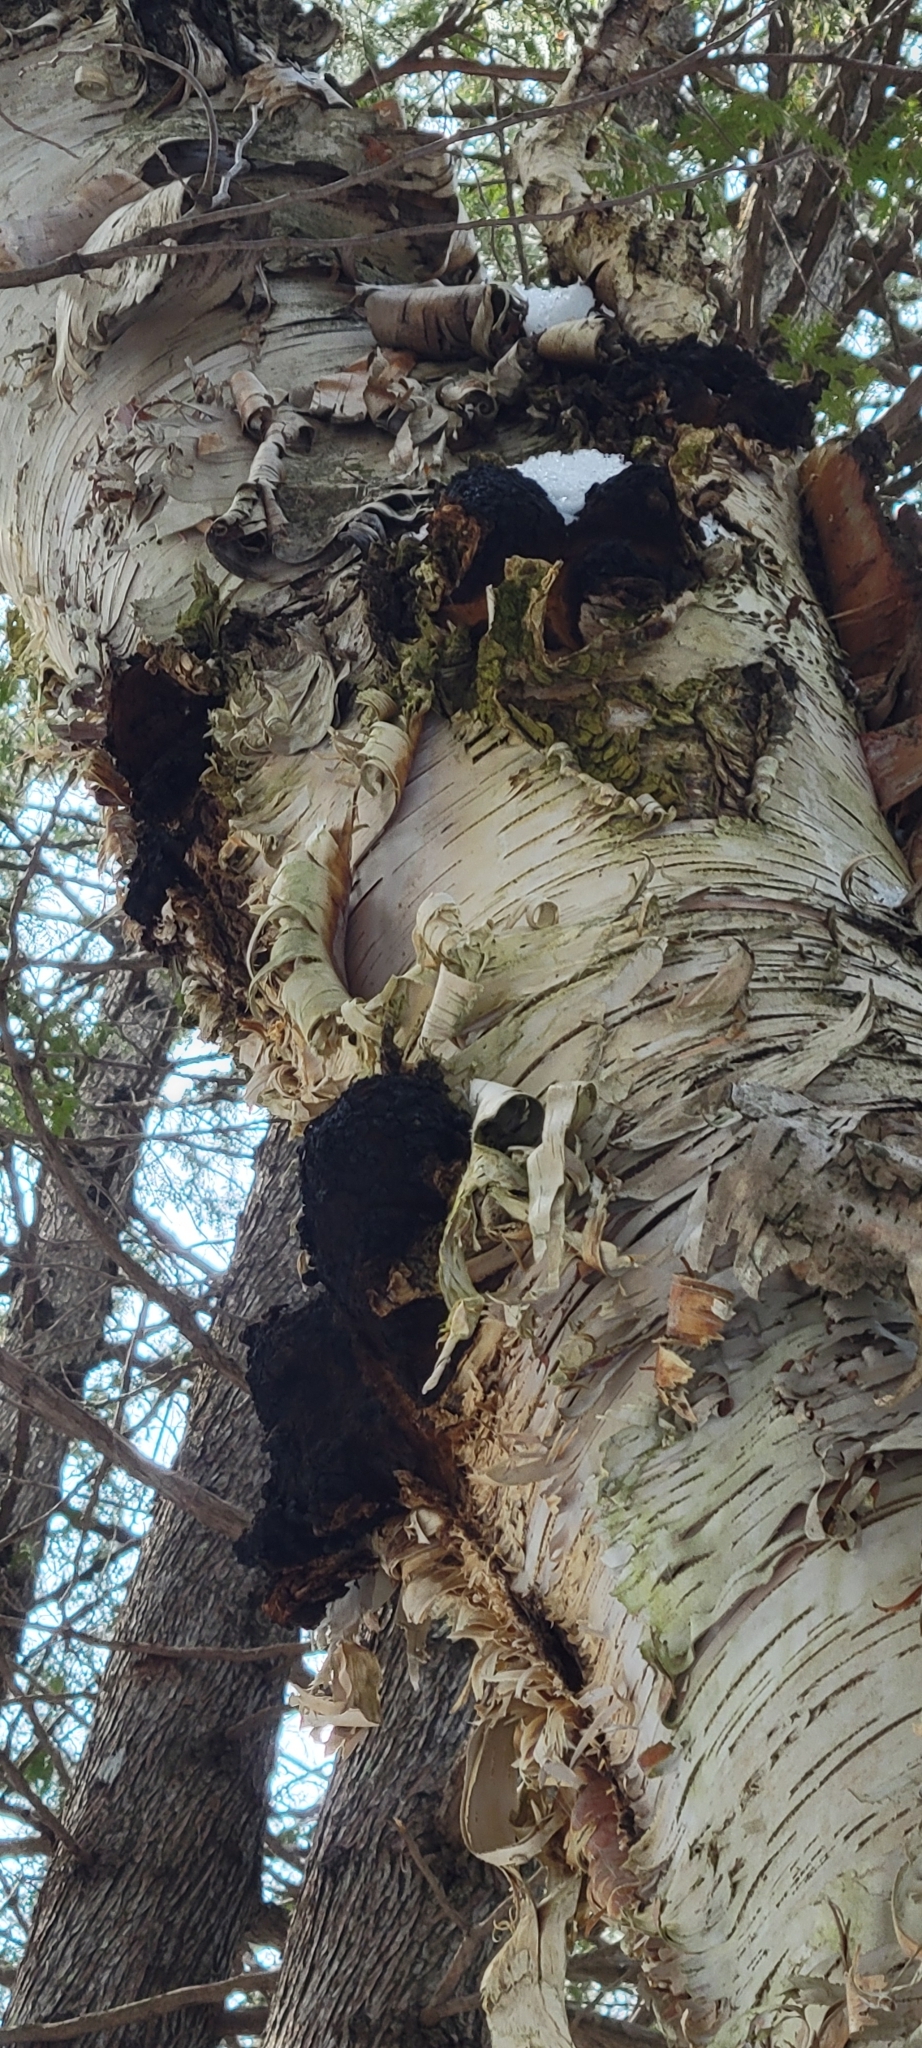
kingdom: Fungi
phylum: Basidiomycota
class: Agaricomycetes
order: Hymenochaetales
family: Hymenochaetaceae
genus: Inonotus
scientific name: Inonotus obliquus
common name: Chaga
